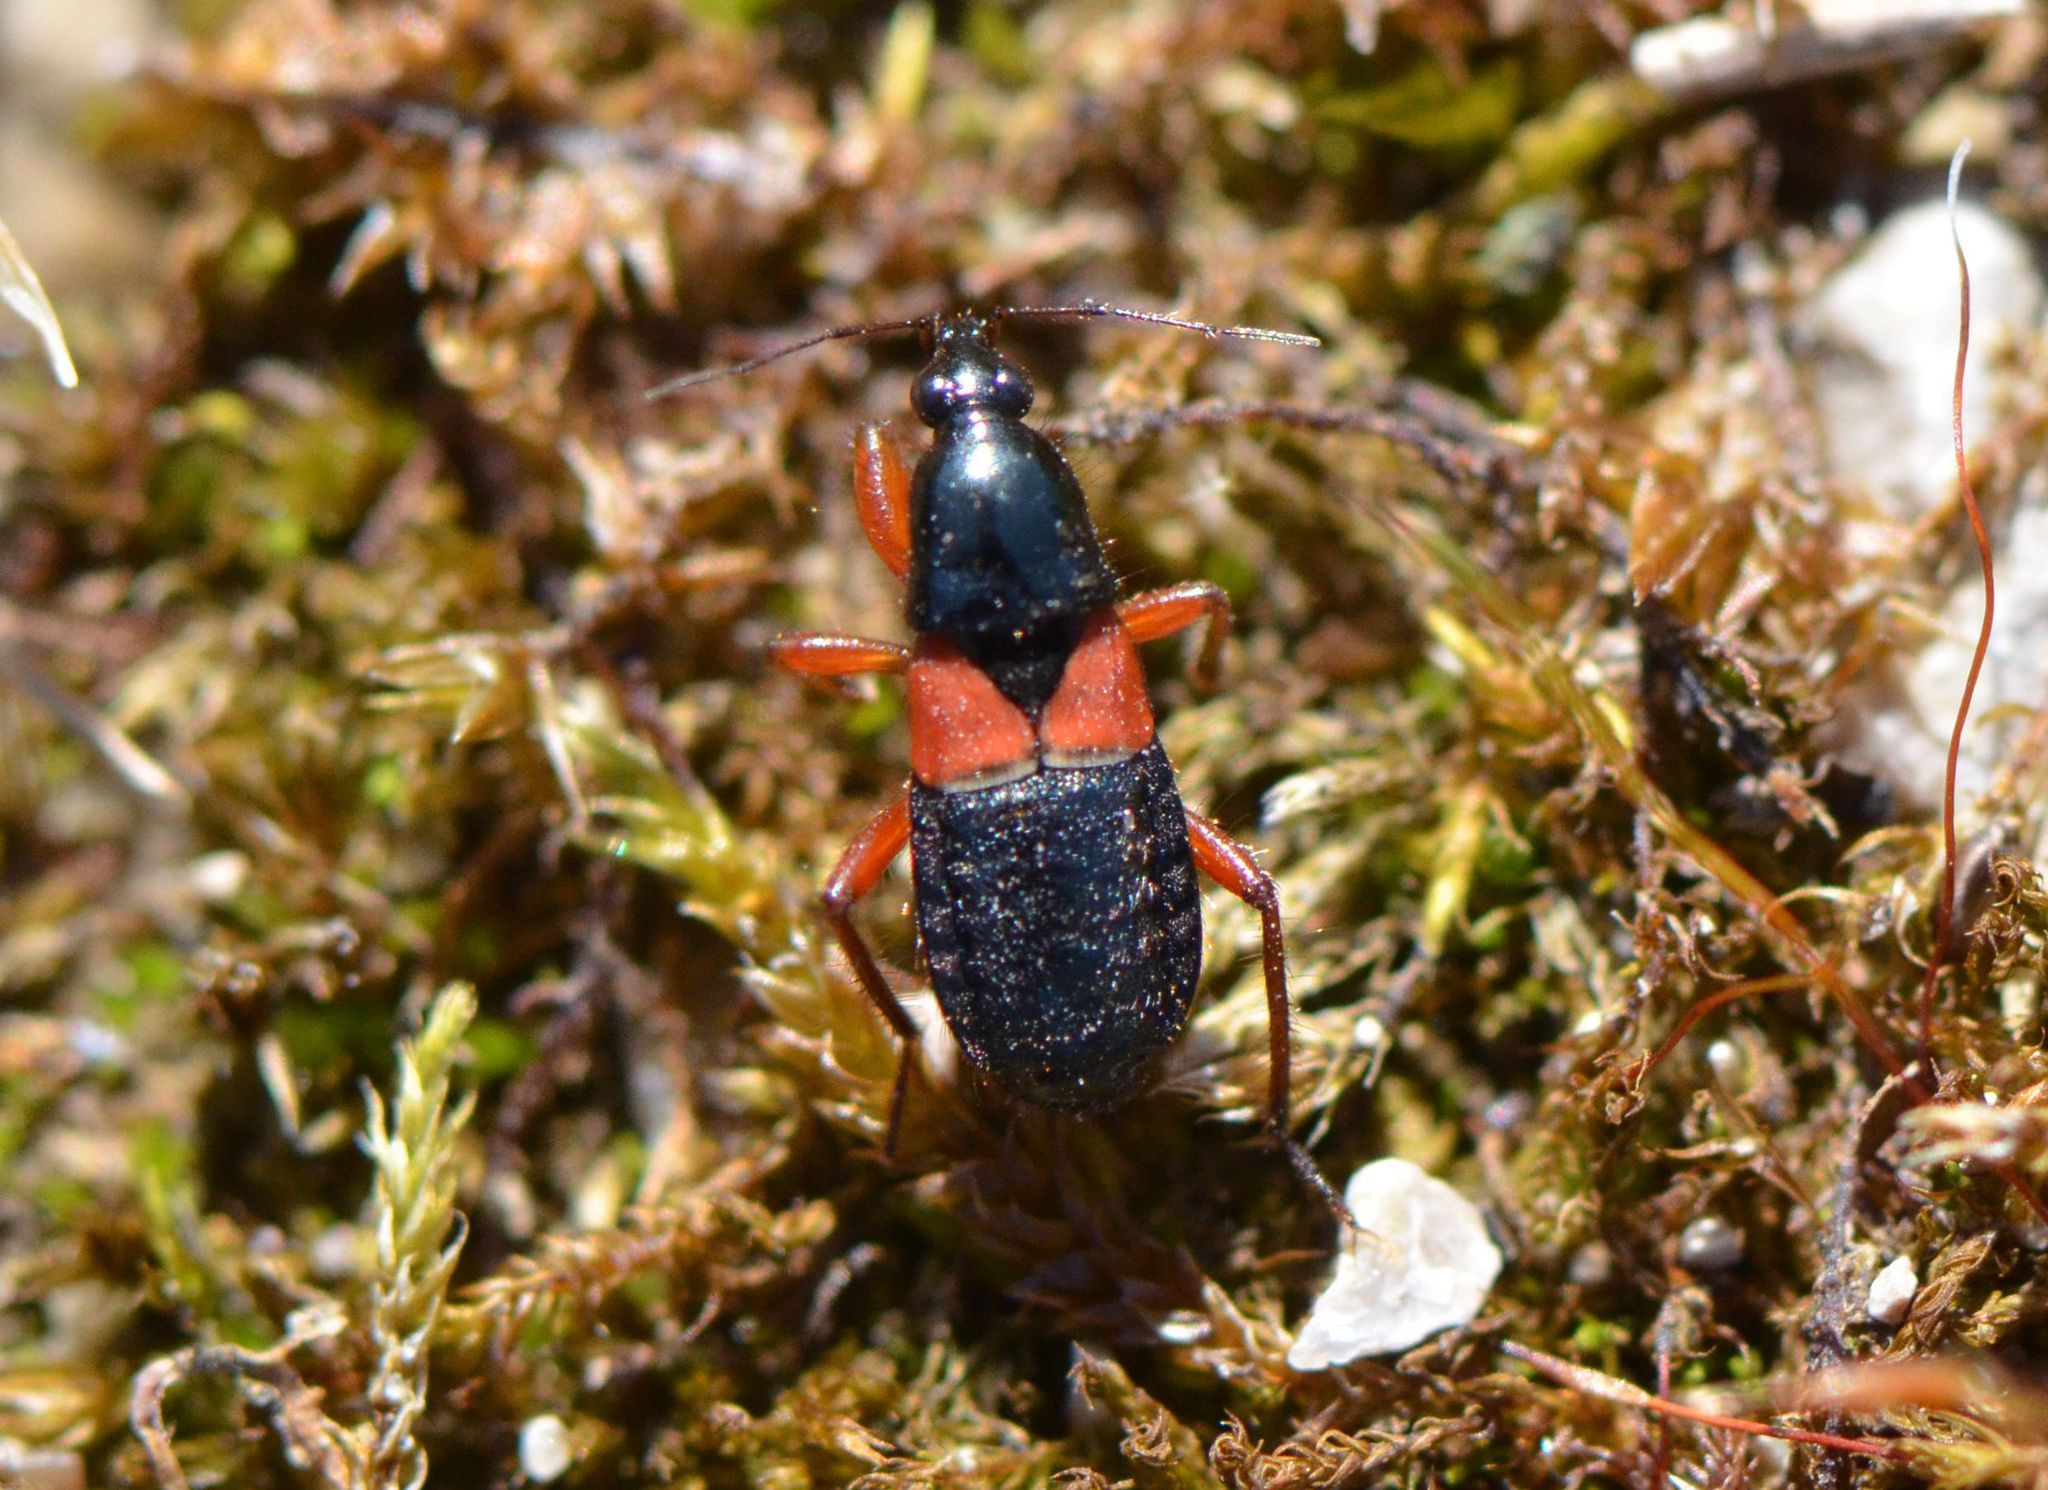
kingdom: Animalia
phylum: Arthropoda
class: Insecta
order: Hemiptera
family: Nabidae
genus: Prostemma
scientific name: Prostemma guttula
